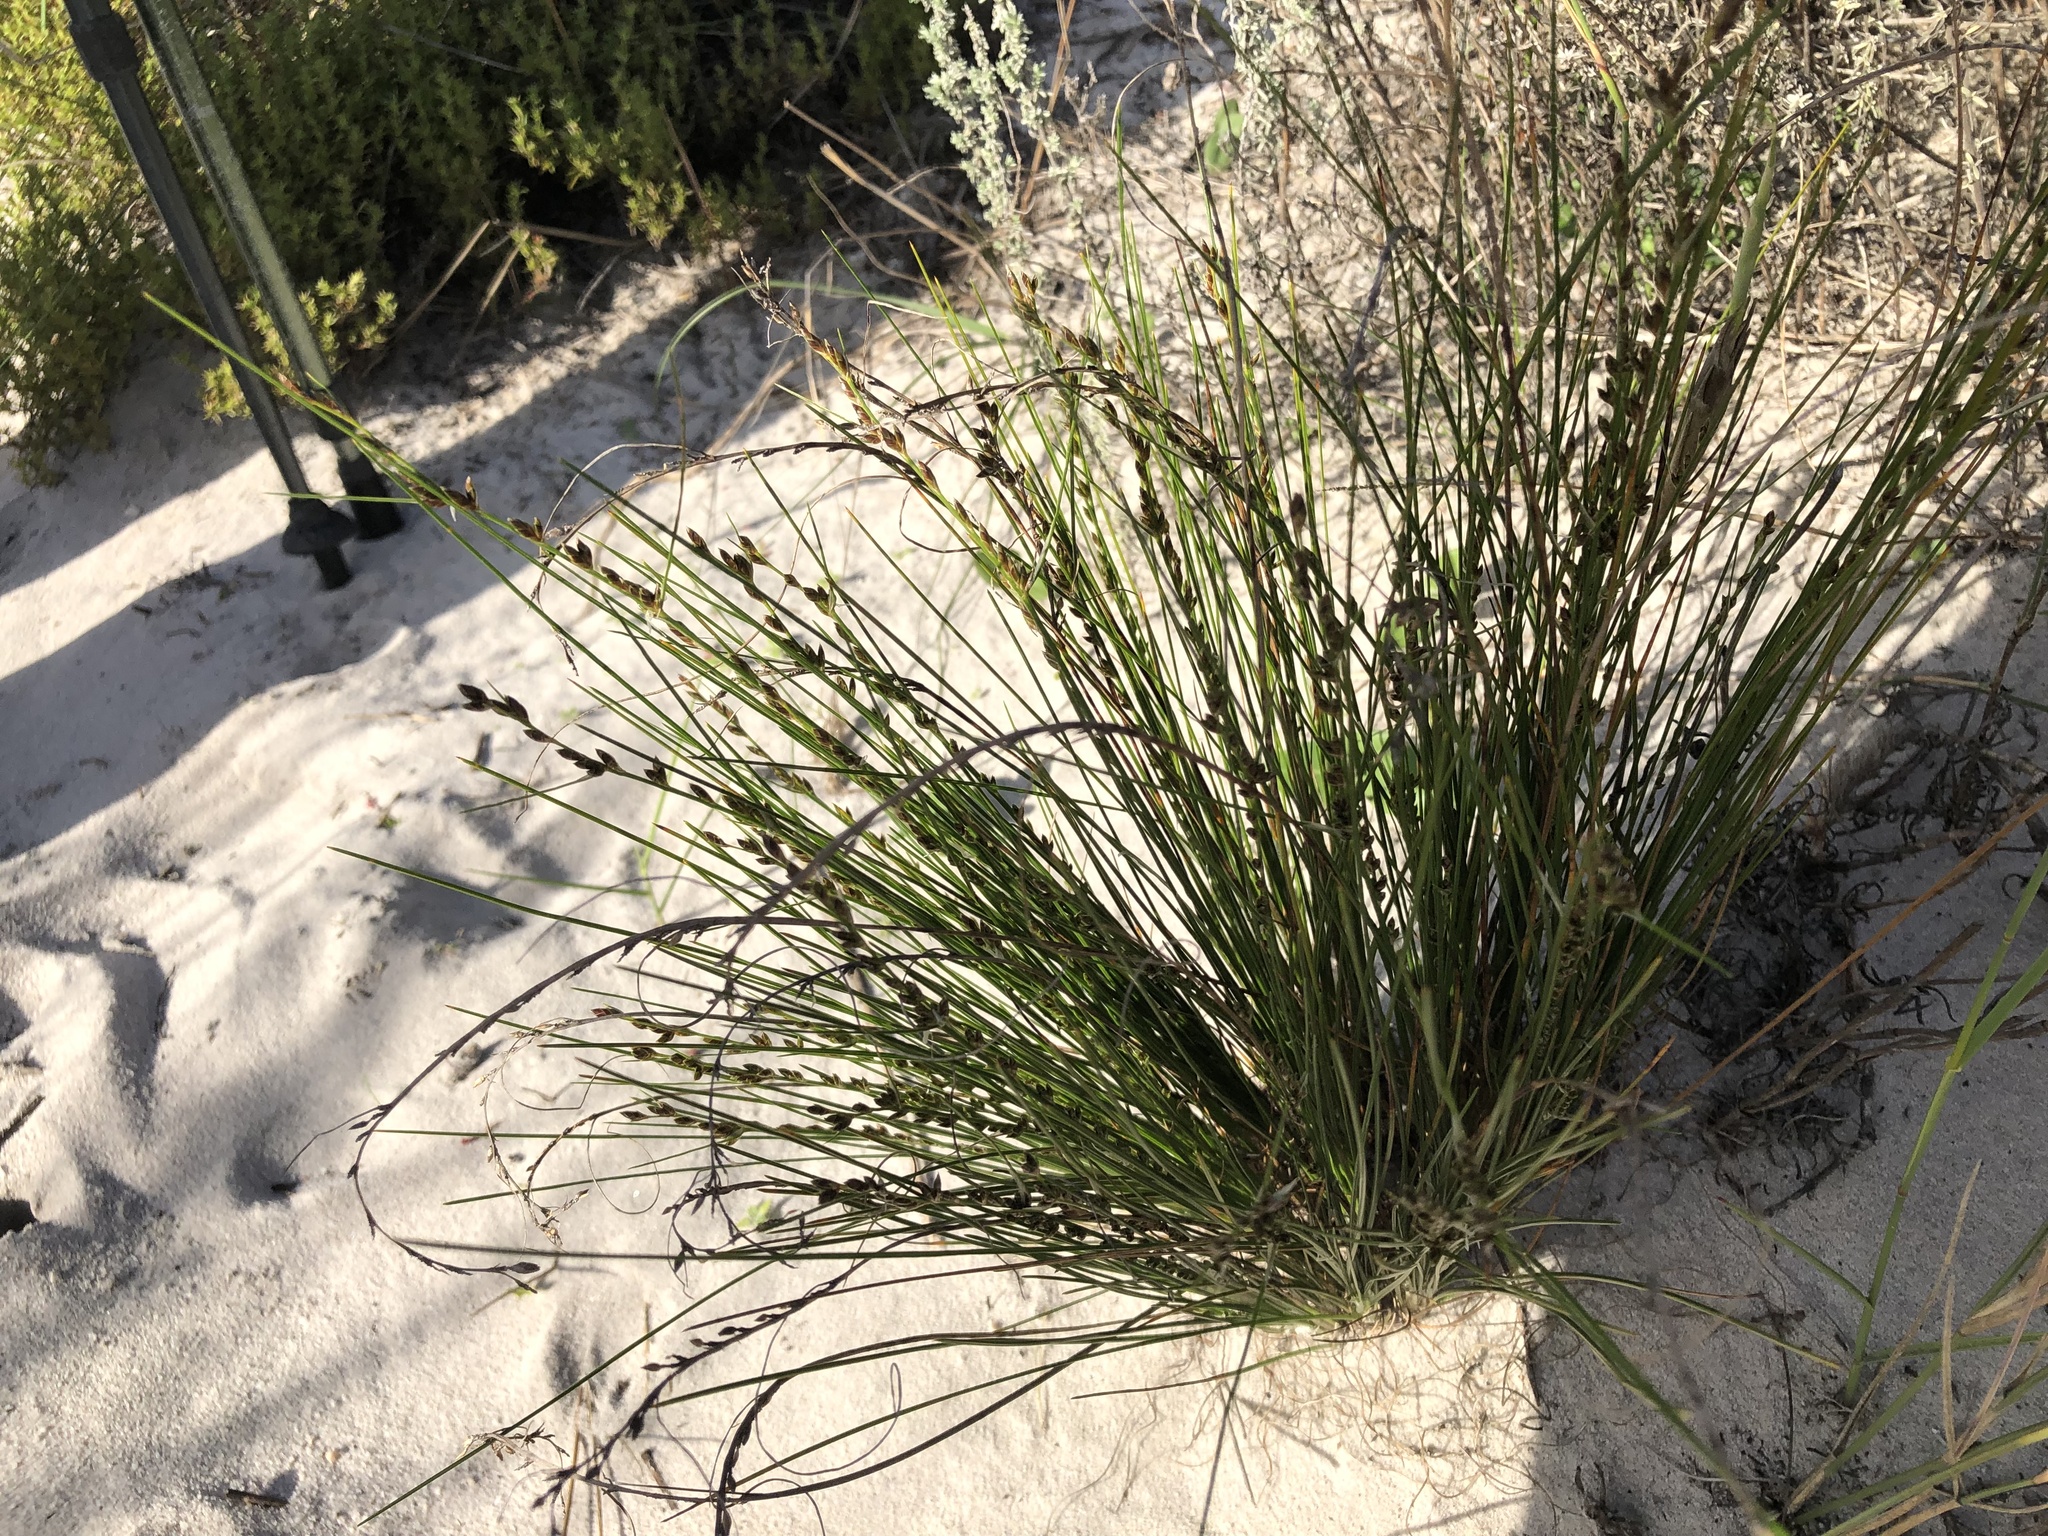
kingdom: Plantae
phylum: Tracheophyta
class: Liliopsida
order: Poales
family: Cyperaceae
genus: Ficinia
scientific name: Ficinia secunda
